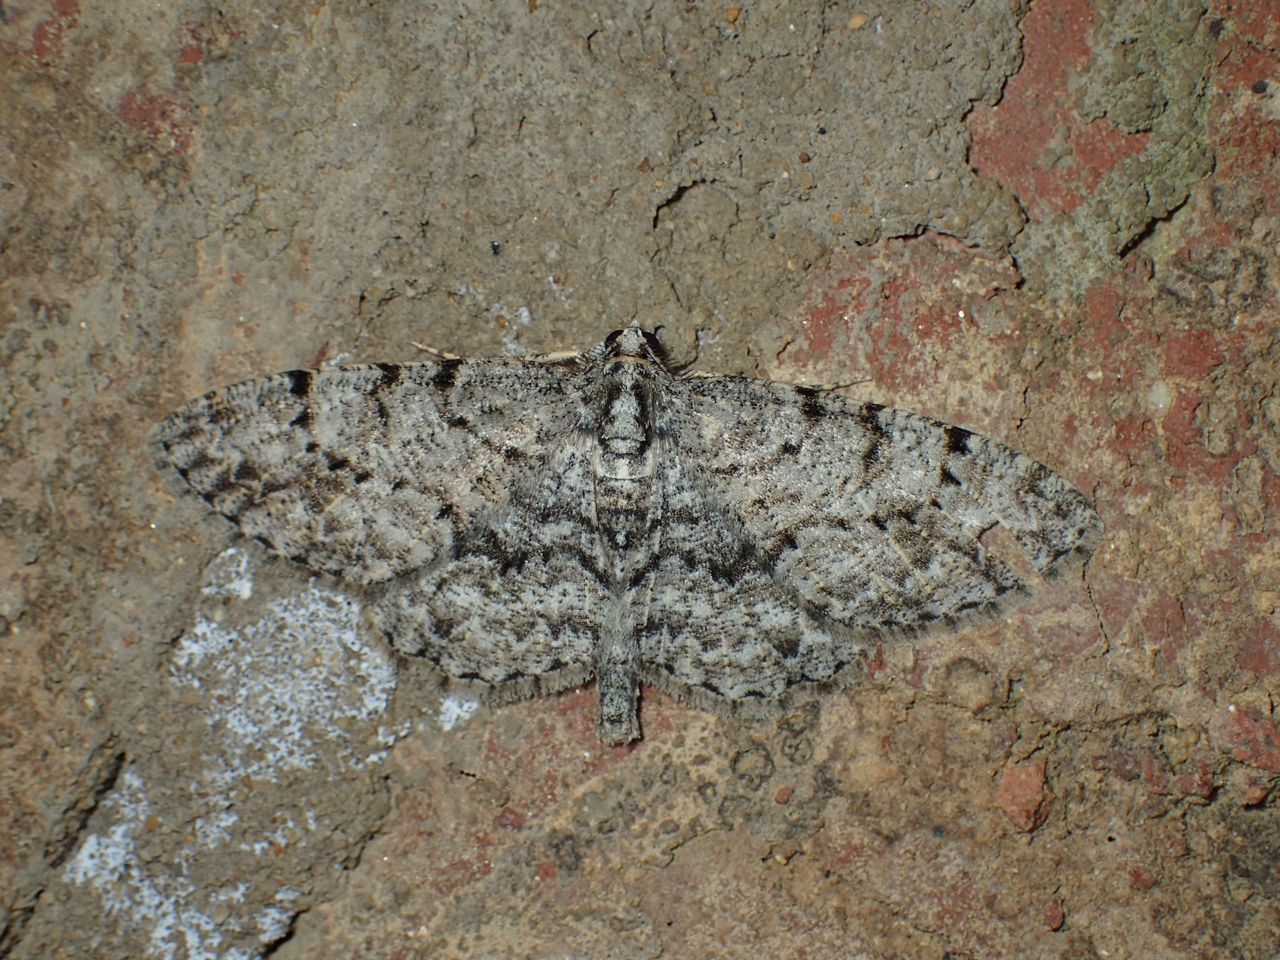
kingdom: Animalia
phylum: Arthropoda
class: Insecta
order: Lepidoptera
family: Geometridae
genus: Protoboarmia
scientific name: Protoboarmia porcelaria
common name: Porcelain gray
